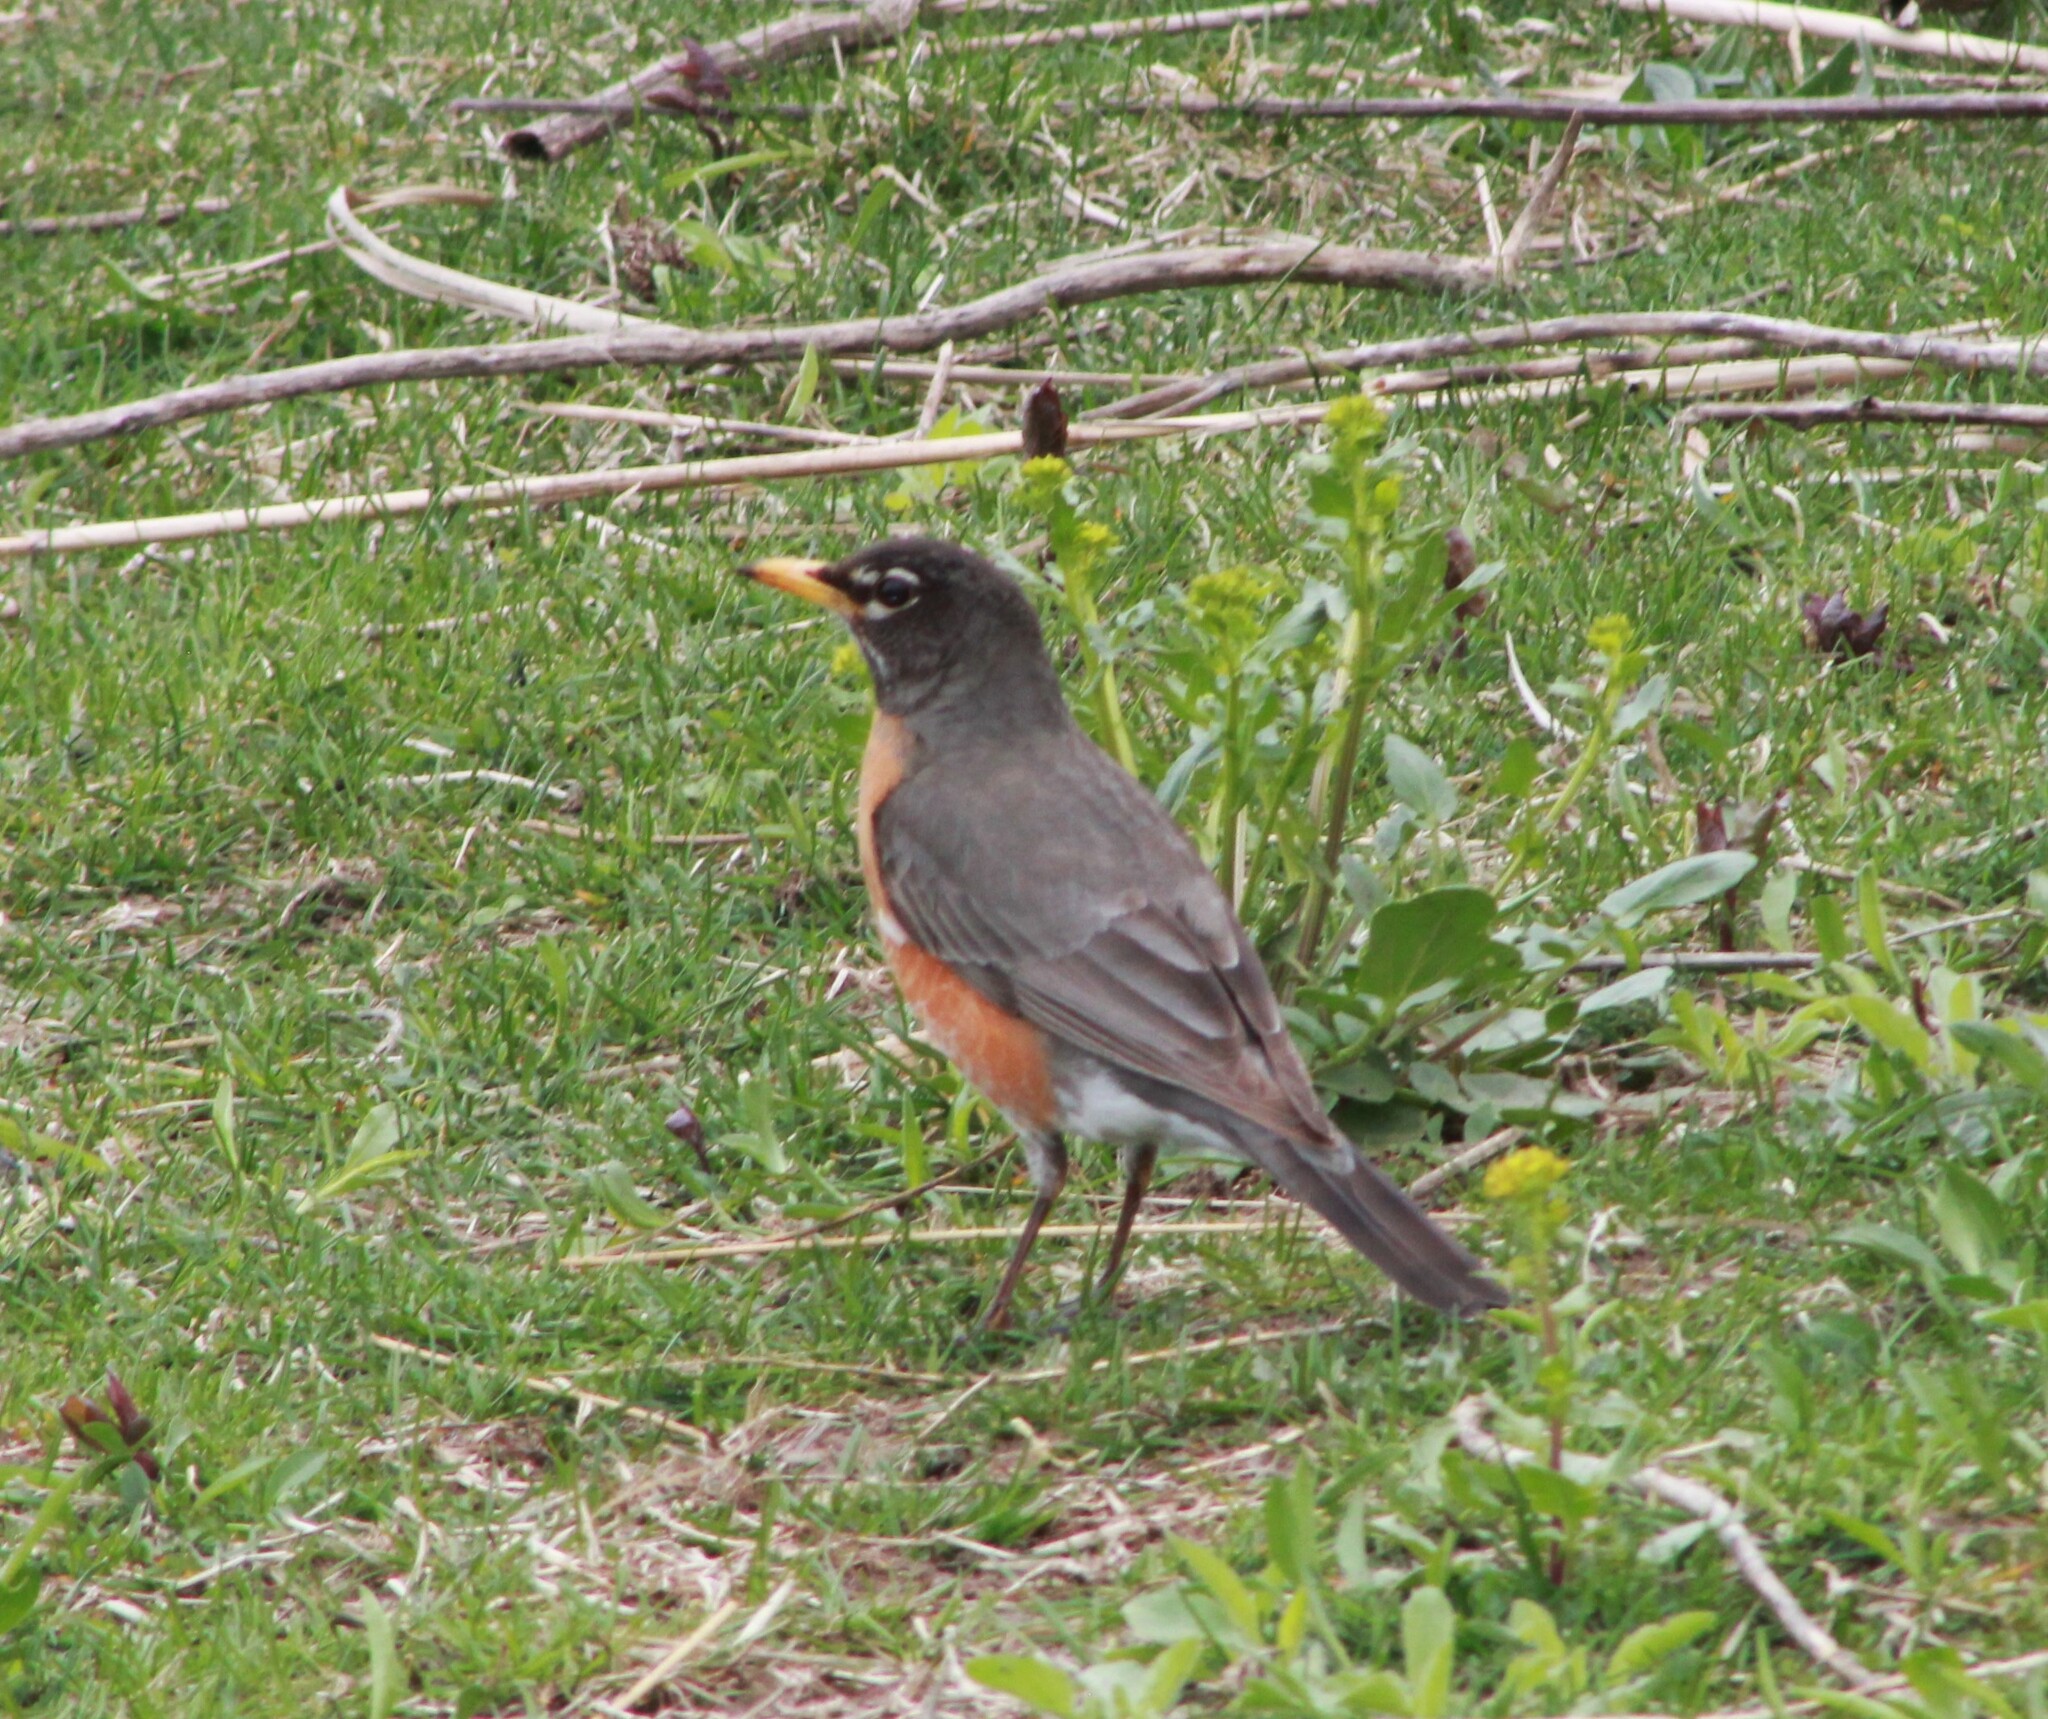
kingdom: Animalia
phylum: Chordata
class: Aves
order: Passeriformes
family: Turdidae
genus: Turdus
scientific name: Turdus migratorius
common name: American robin
